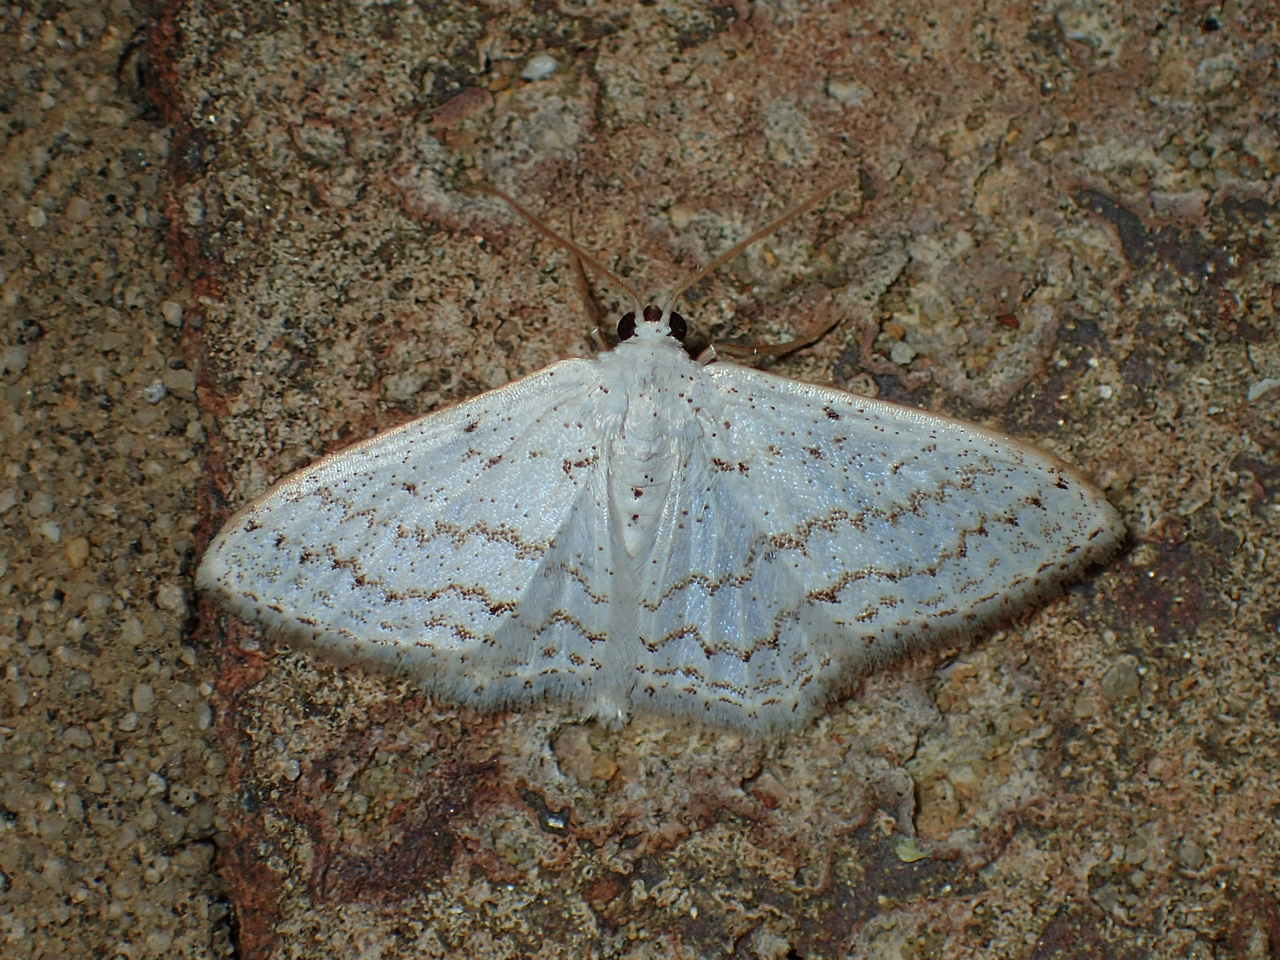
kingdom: Animalia
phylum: Arthropoda
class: Insecta
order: Lepidoptera
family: Geometridae
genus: Idaea
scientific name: Idaea tacturata
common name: Dot-lined wave
